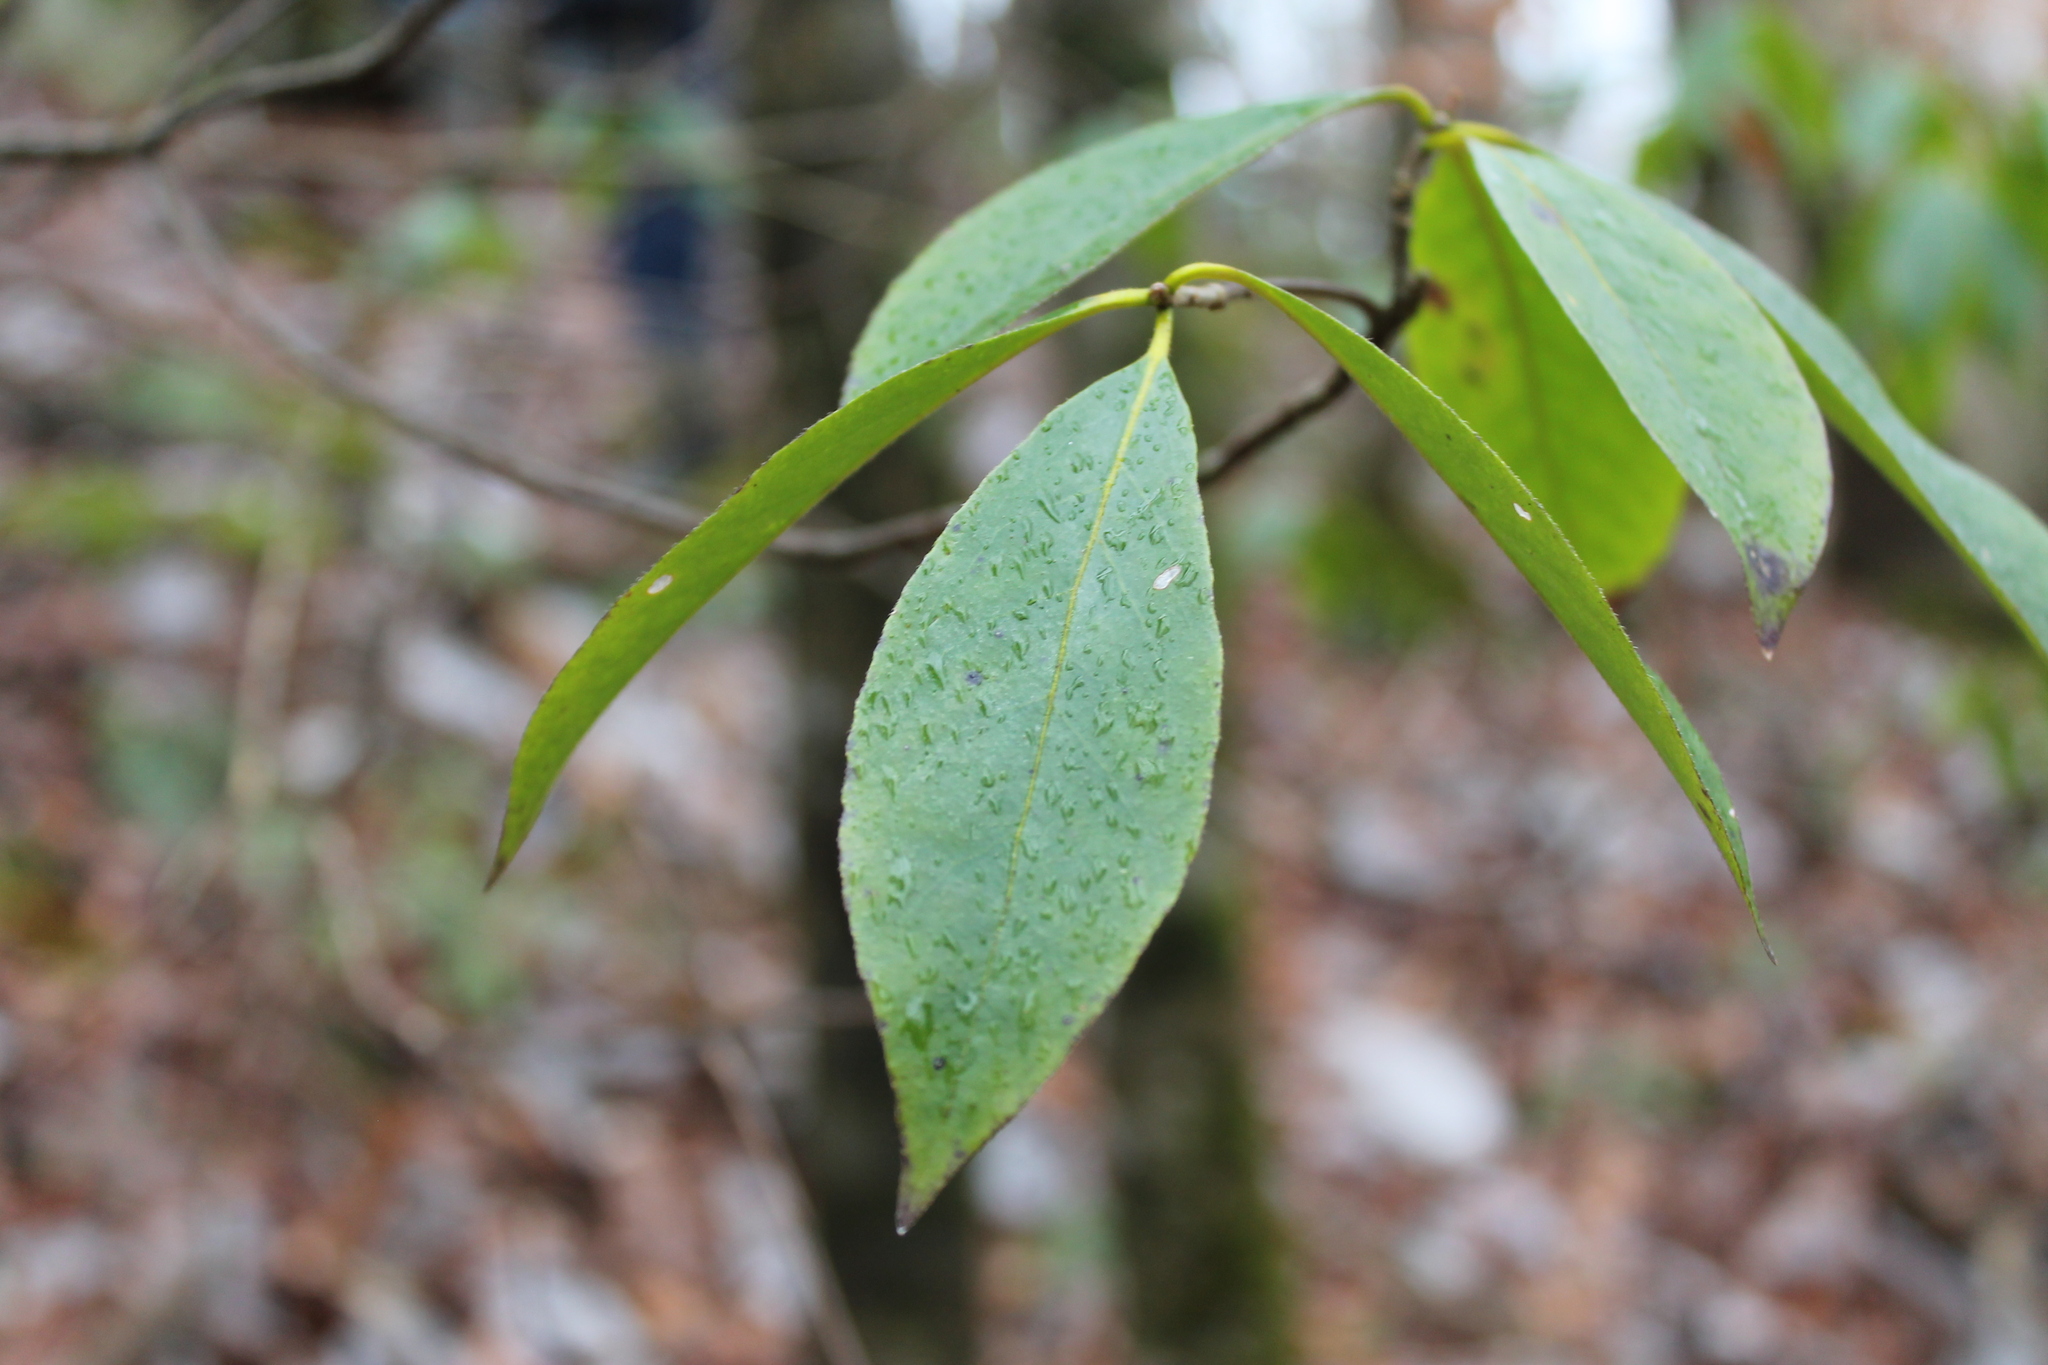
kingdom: Plantae
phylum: Tracheophyta
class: Magnoliopsida
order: Ericales
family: Symplocaceae
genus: Symplocos
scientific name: Symplocos tinctoria
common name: Horse-sugar
